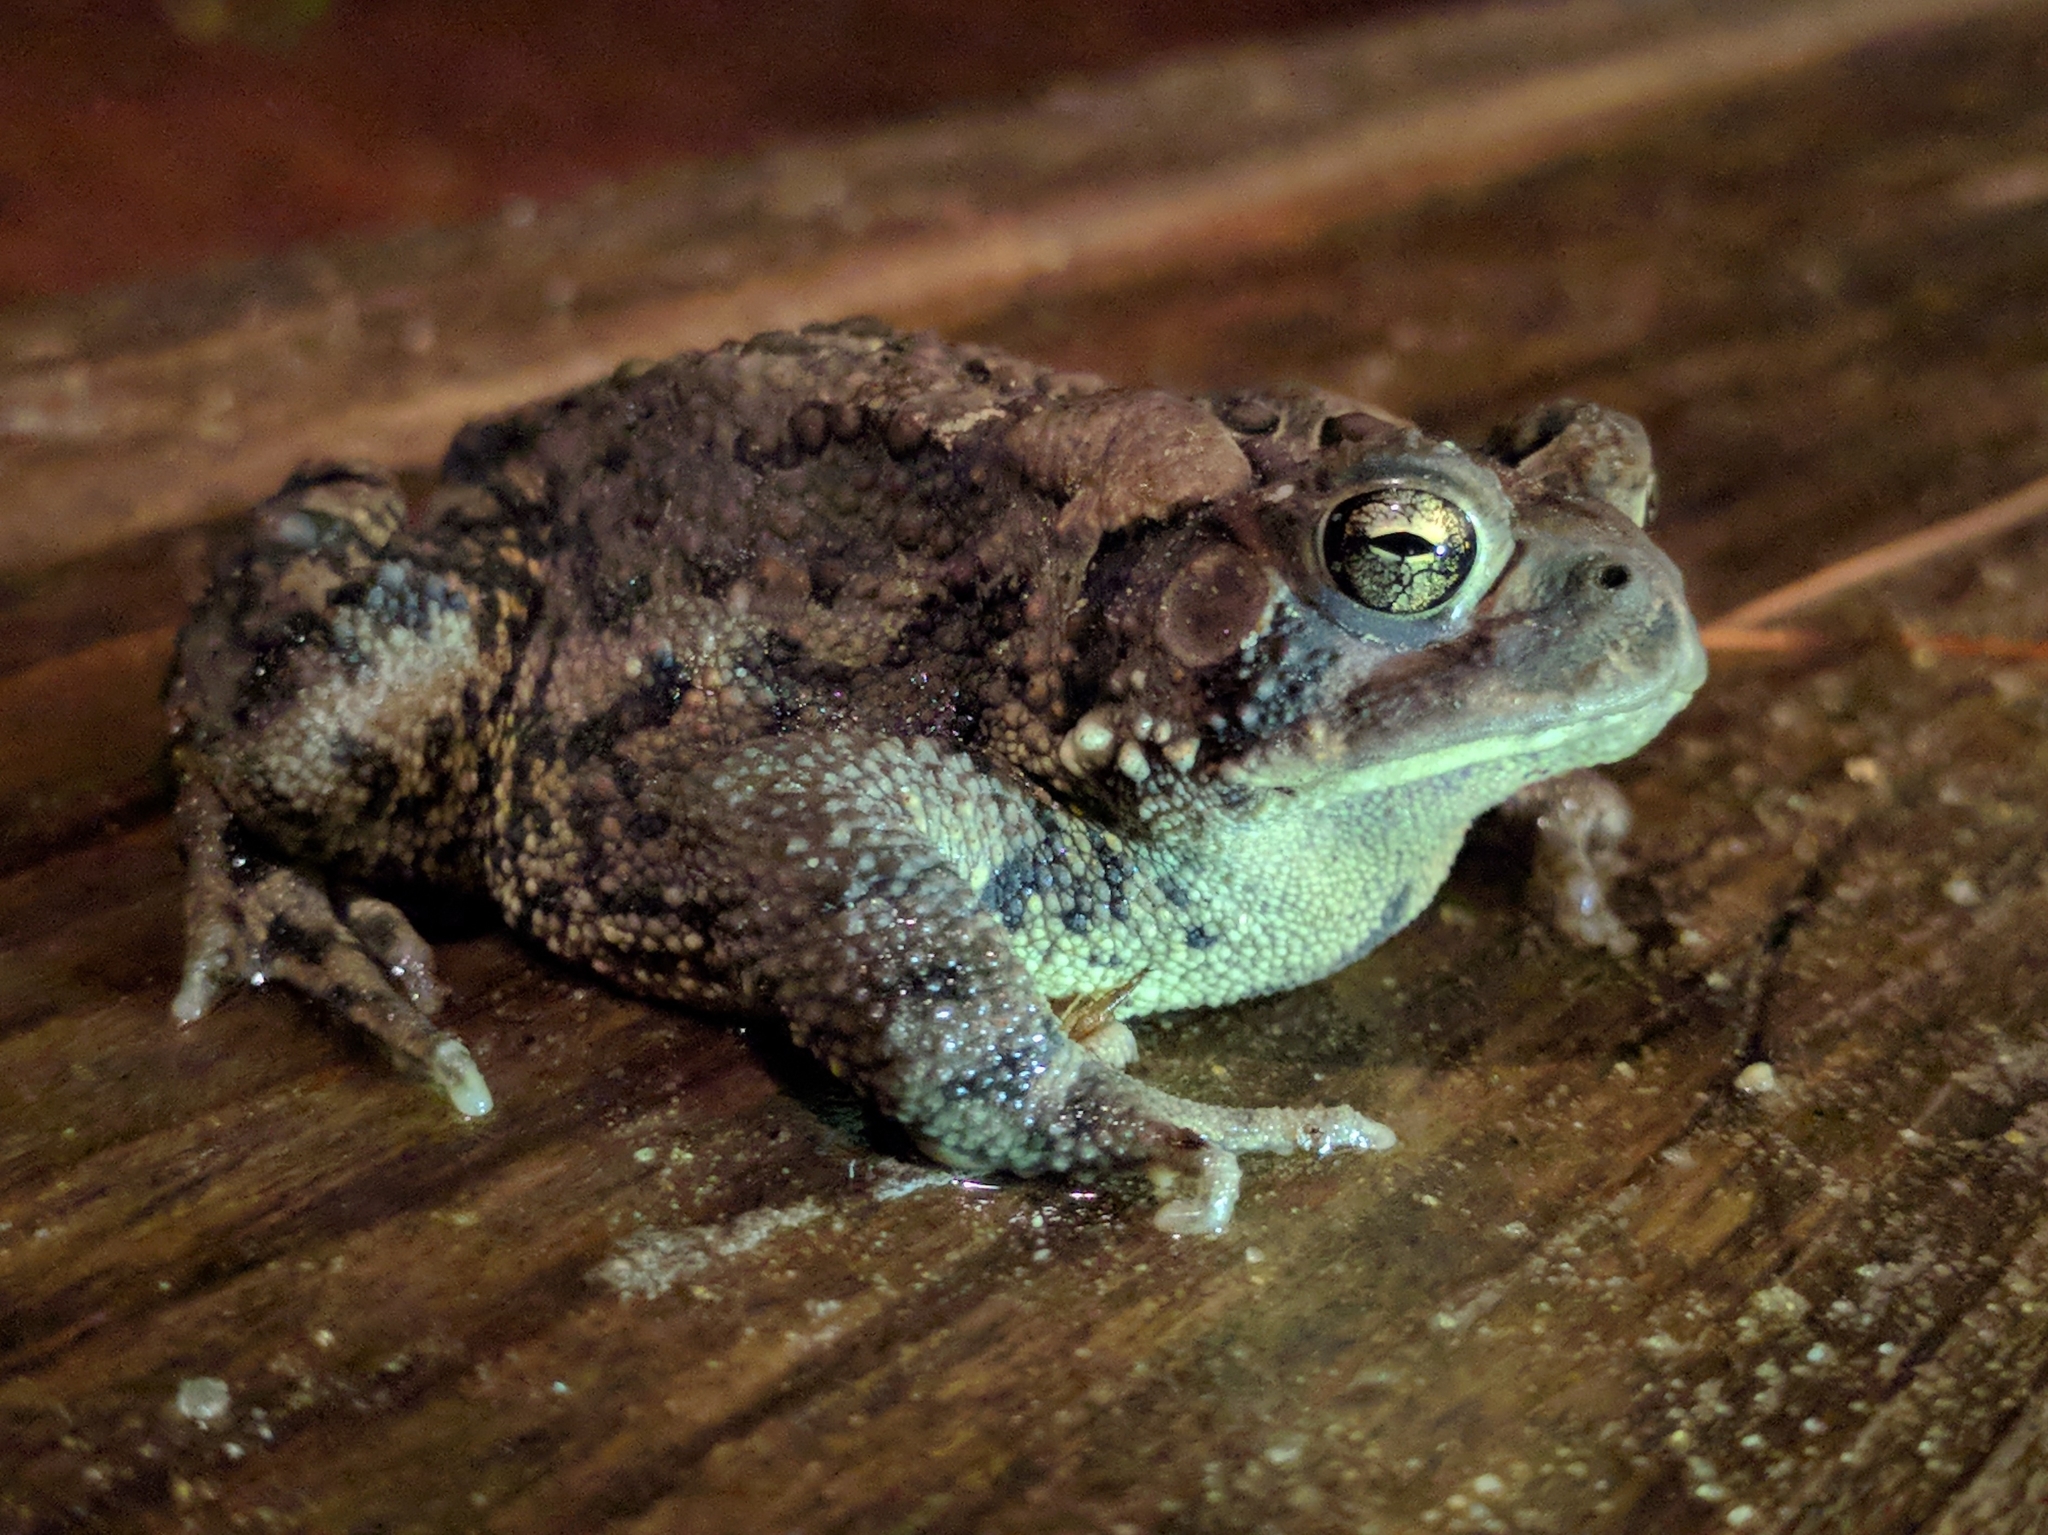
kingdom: Animalia
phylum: Chordata
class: Amphibia
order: Anura
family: Bufonidae
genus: Anaxyrus
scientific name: Anaxyrus americanus
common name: American toad
